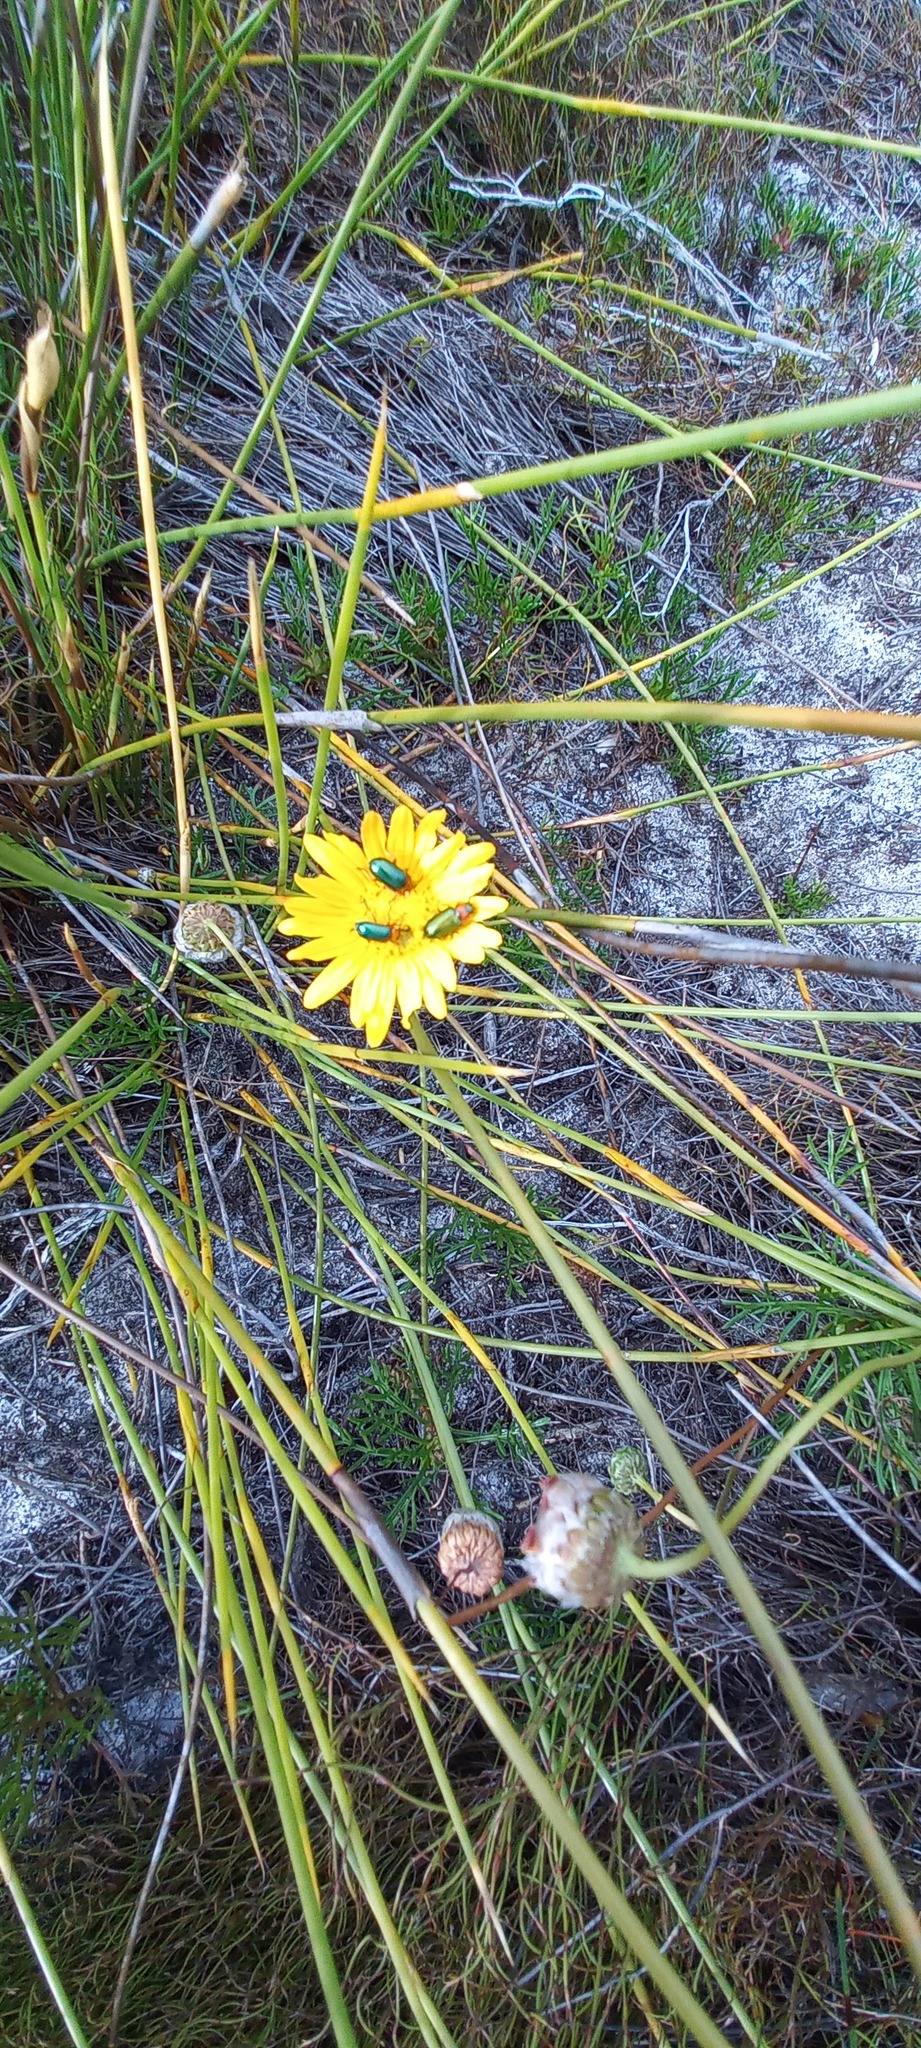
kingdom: Animalia
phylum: Arthropoda
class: Insecta
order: Coleoptera
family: Chrysomelidae
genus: Palaeophylia
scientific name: Palaeophylia
